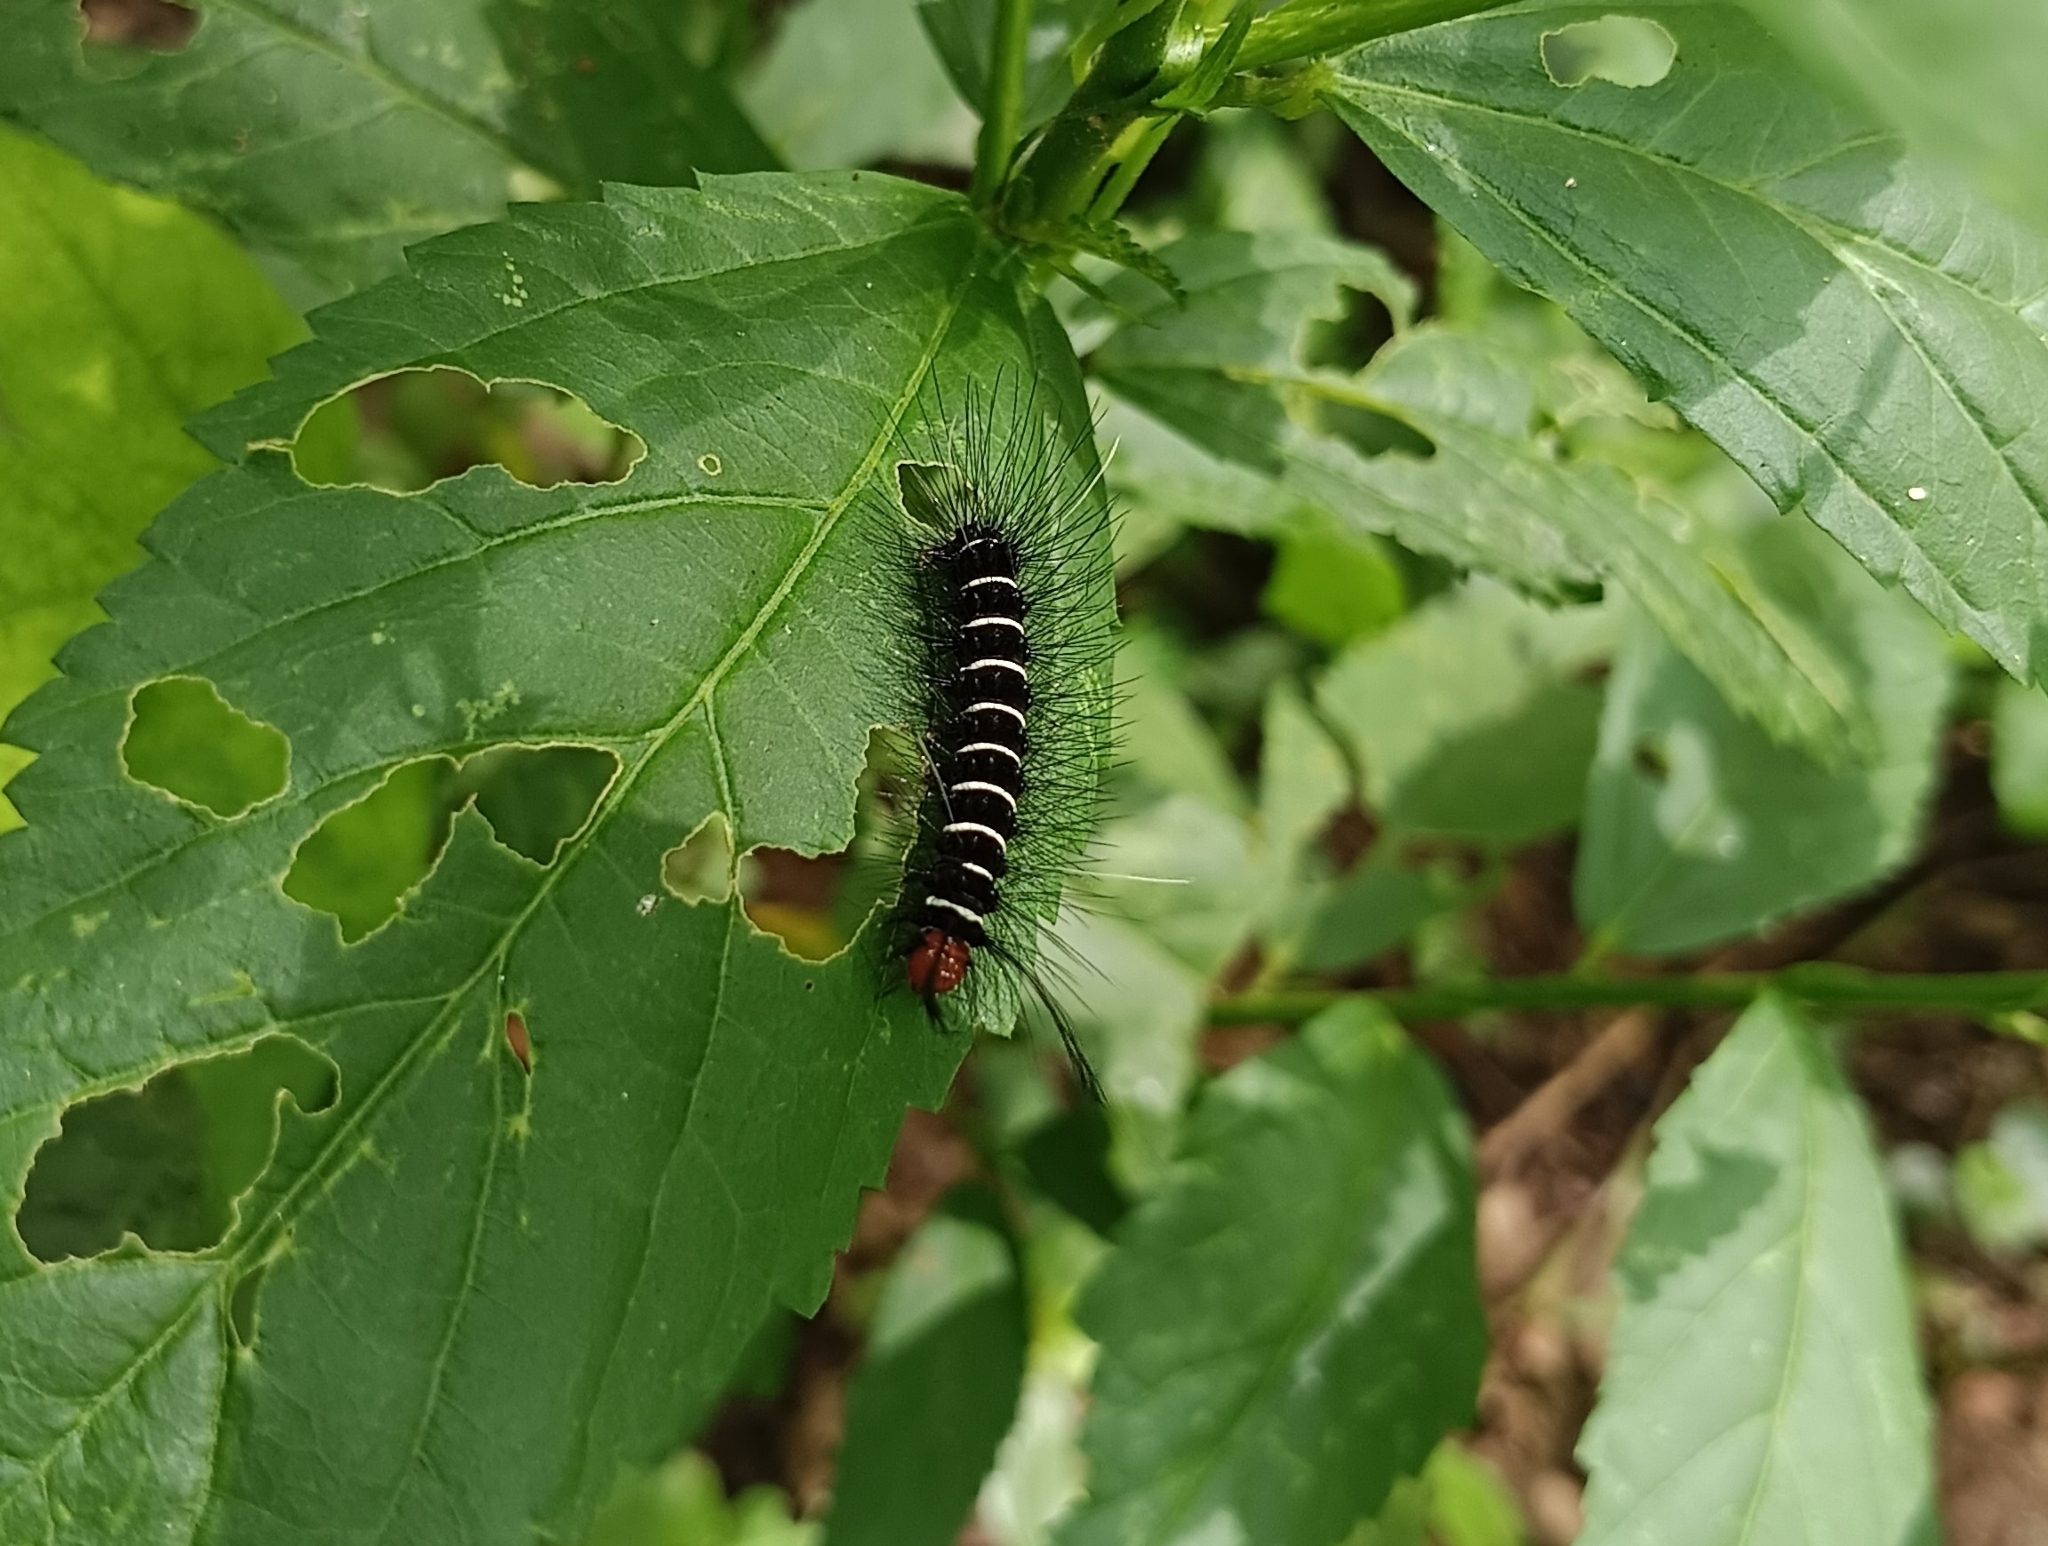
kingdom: Animalia
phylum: Arthropoda
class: Insecta
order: Lepidoptera
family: Erebidae
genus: Nyctemera
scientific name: Nyctemera coleta
